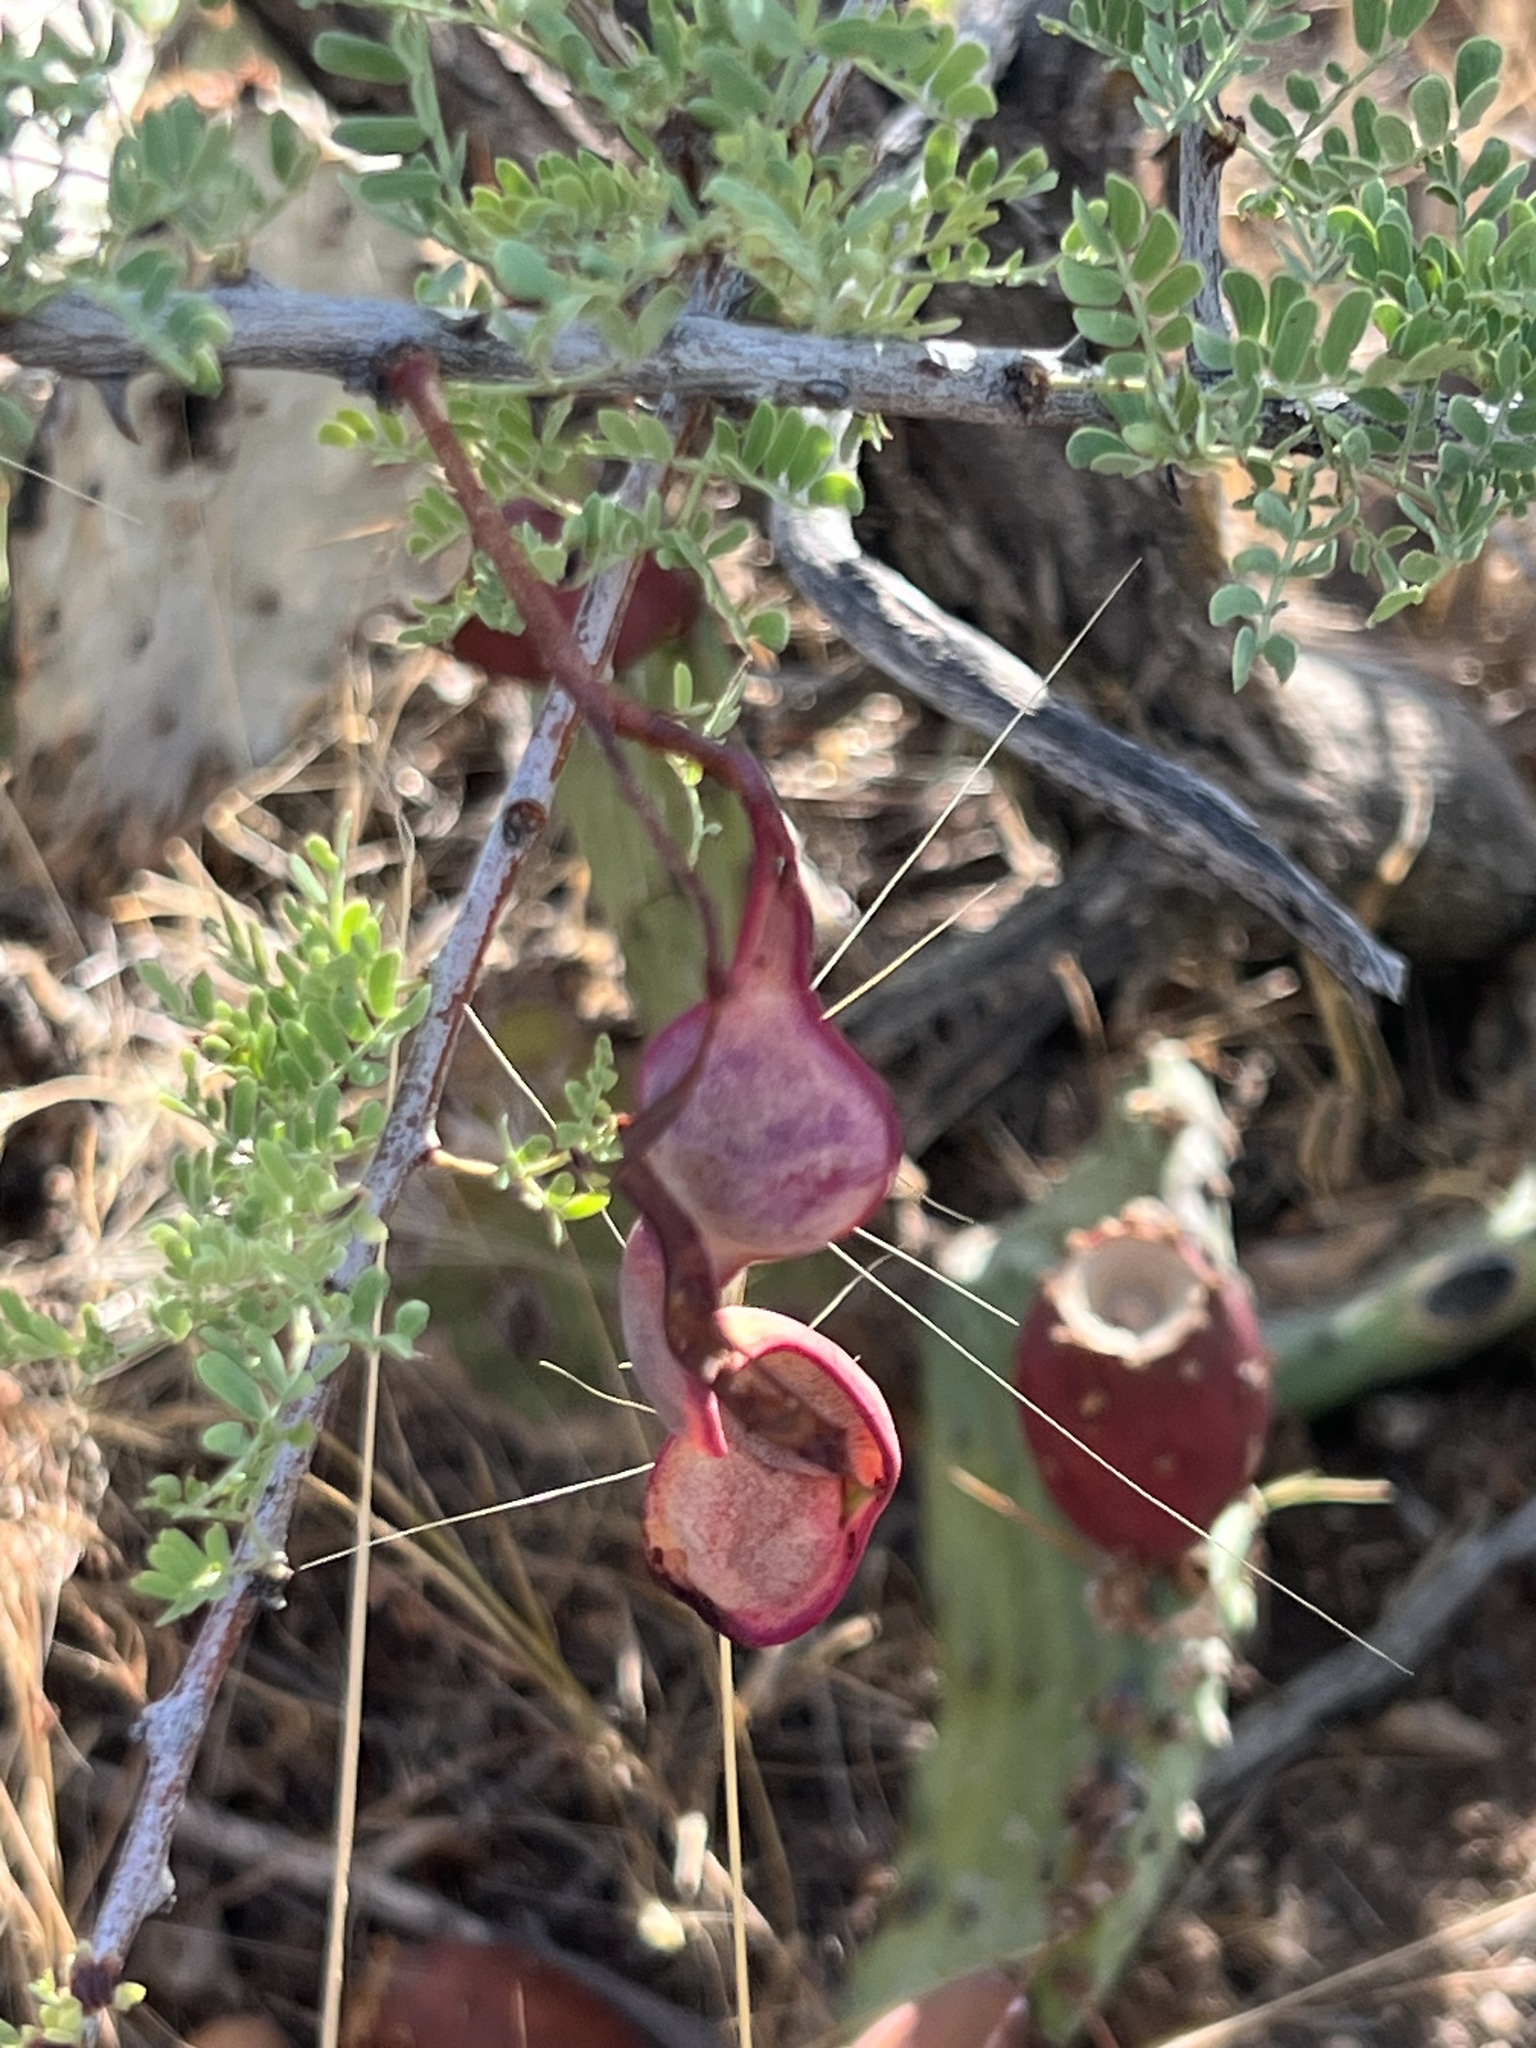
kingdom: Plantae
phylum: Tracheophyta
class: Magnoliopsida
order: Fabales
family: Fabaceae
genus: Senegalia
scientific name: Senegalia greggii
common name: Texas-mimosa
